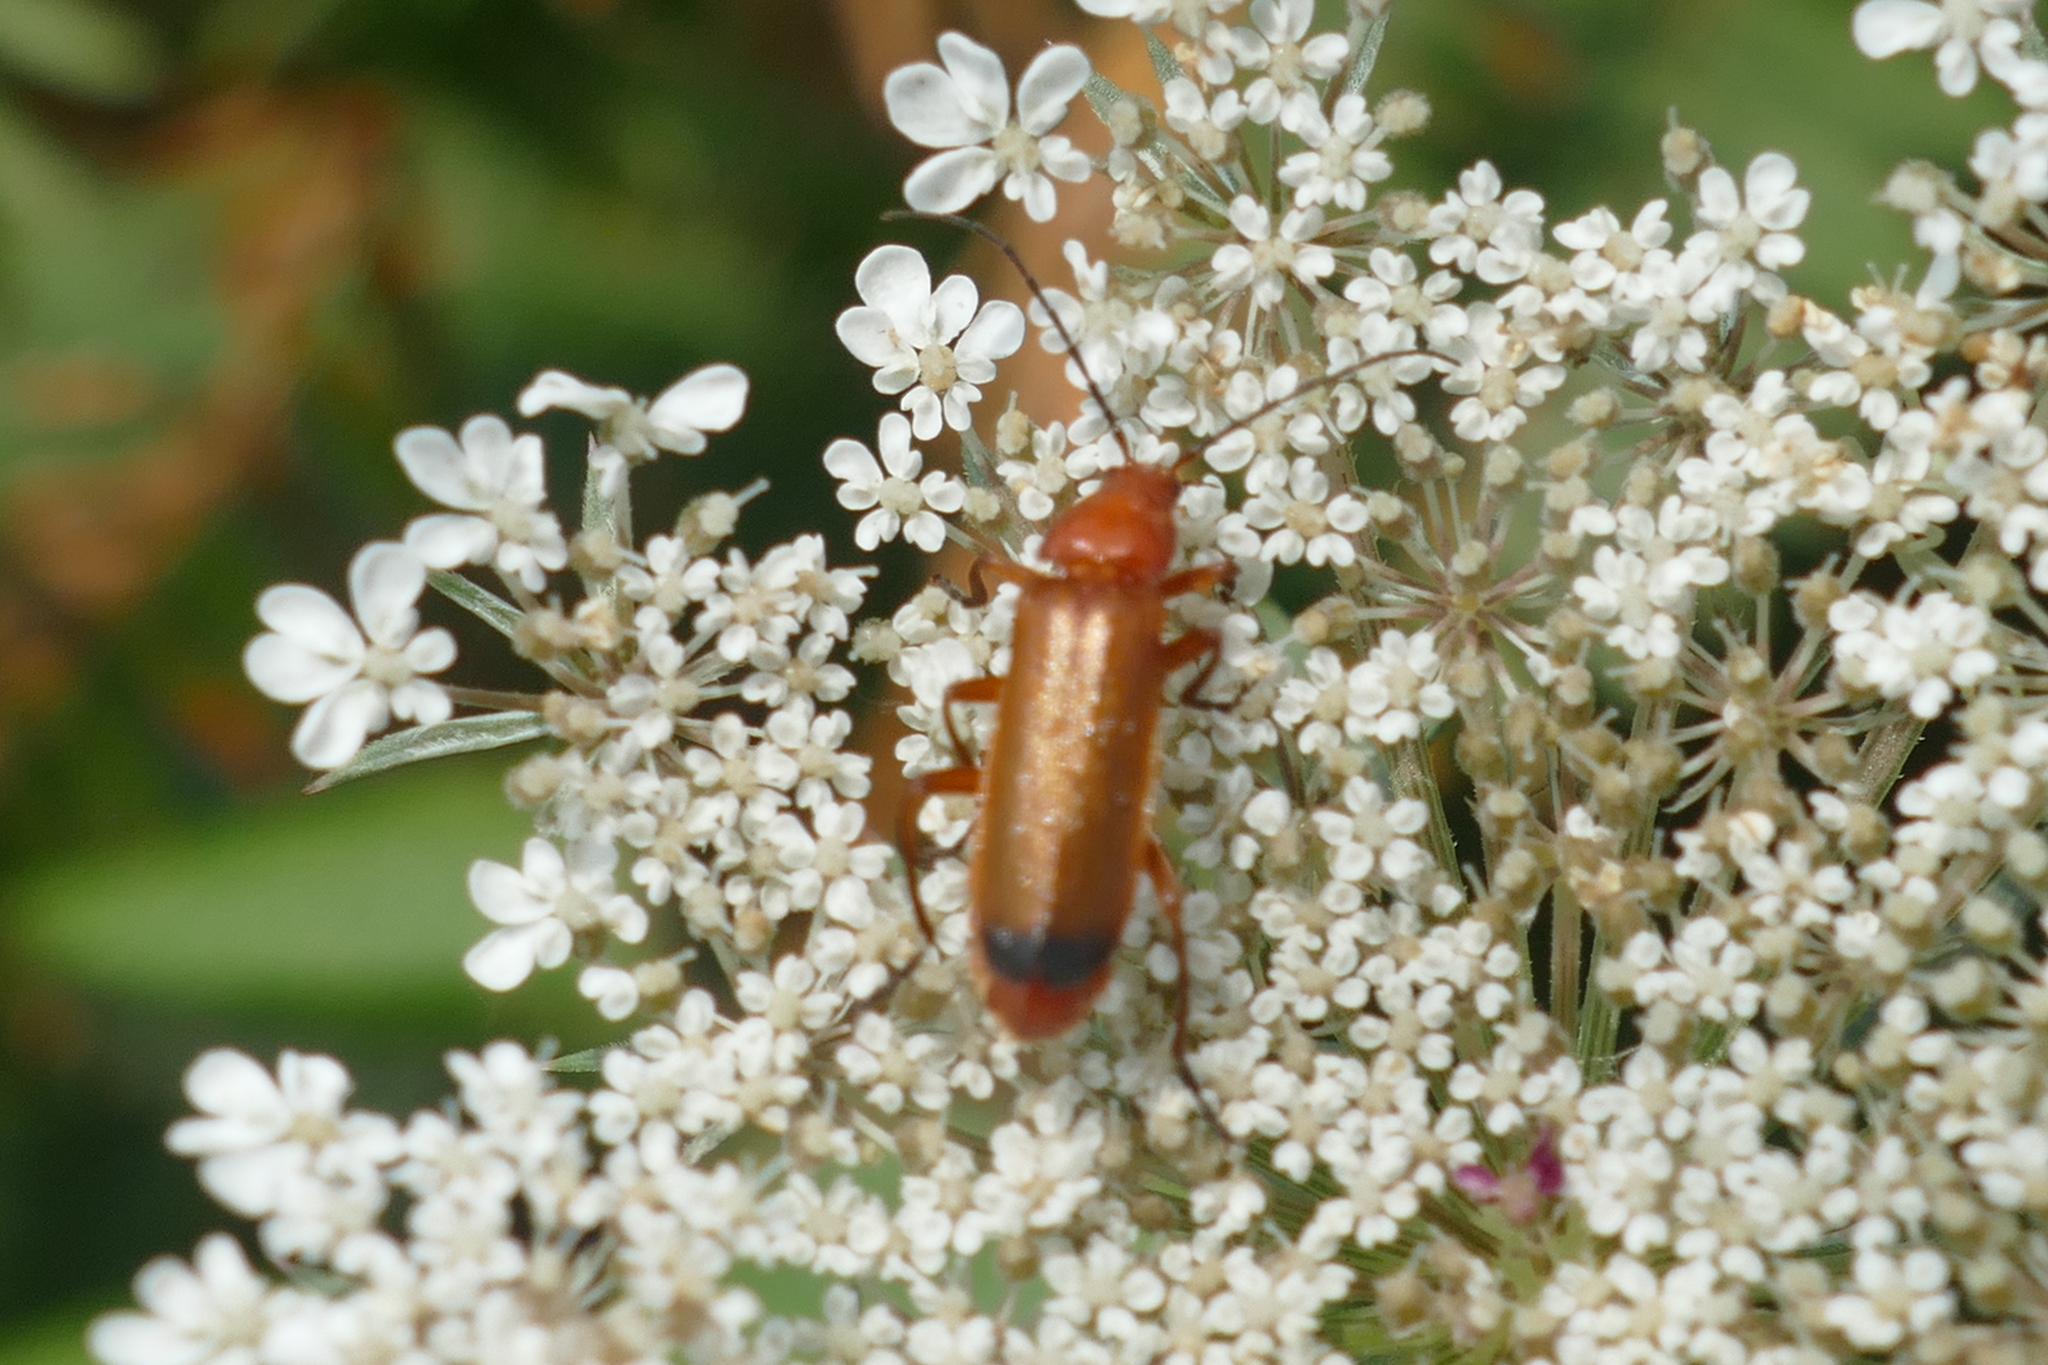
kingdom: Animalia
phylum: Arthropoda
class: Insecta
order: Coleoptera
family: Cantharidae
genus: Rhagonycha
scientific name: Rhagonycha fulva
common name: Common red soldier beetle
